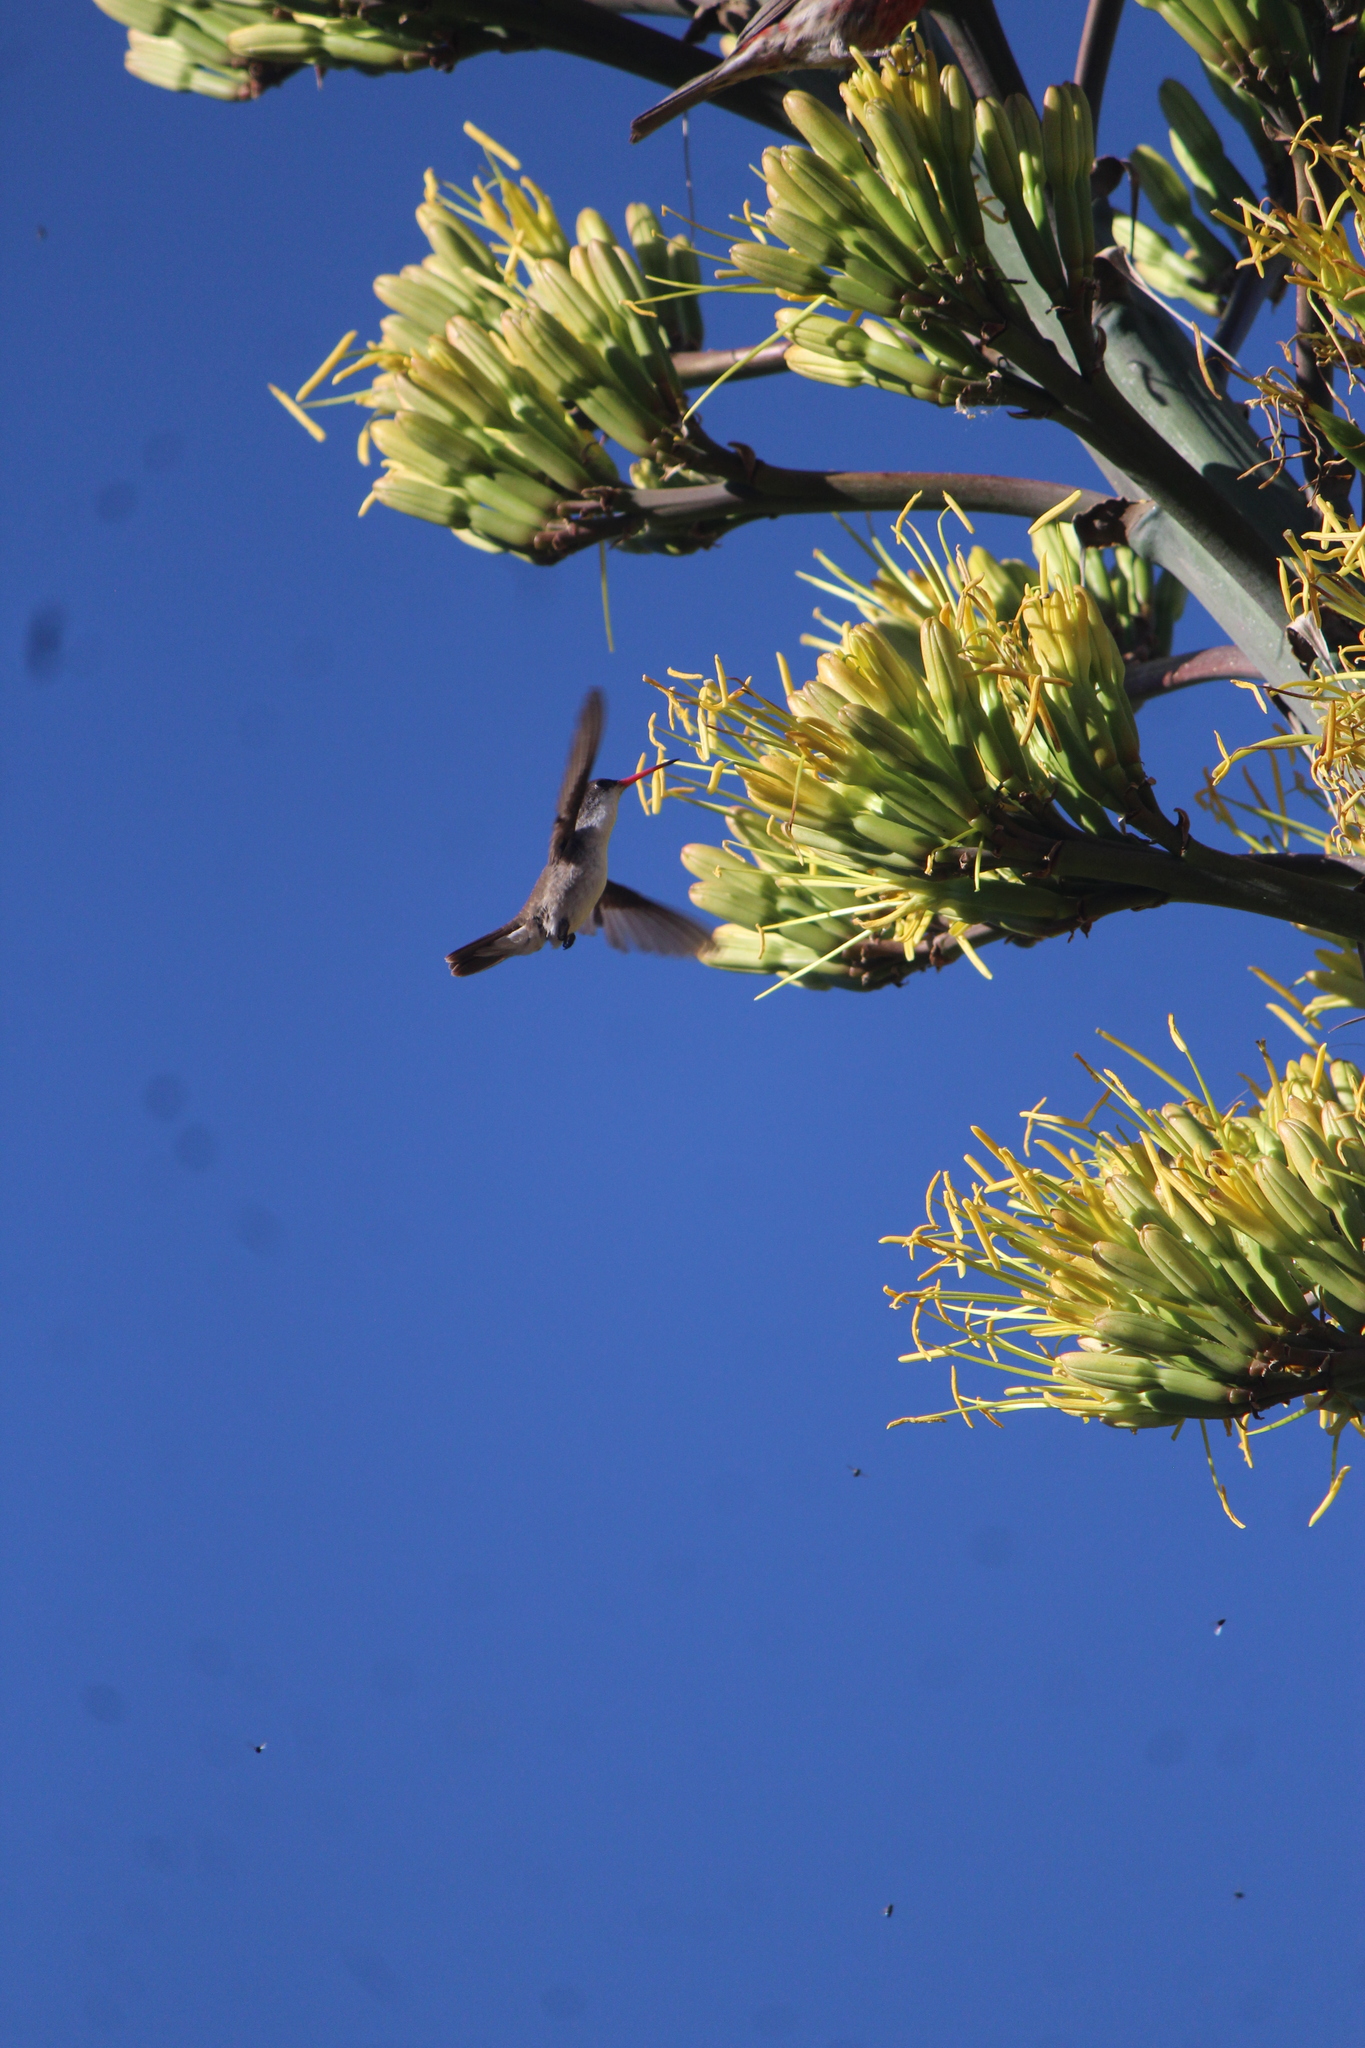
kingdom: Animalia
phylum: Chordata
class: Aves
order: Apodiformes
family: Trochilidae
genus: Leucolia
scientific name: Leucolia violiceps
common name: Violet-crowned hummingbird
